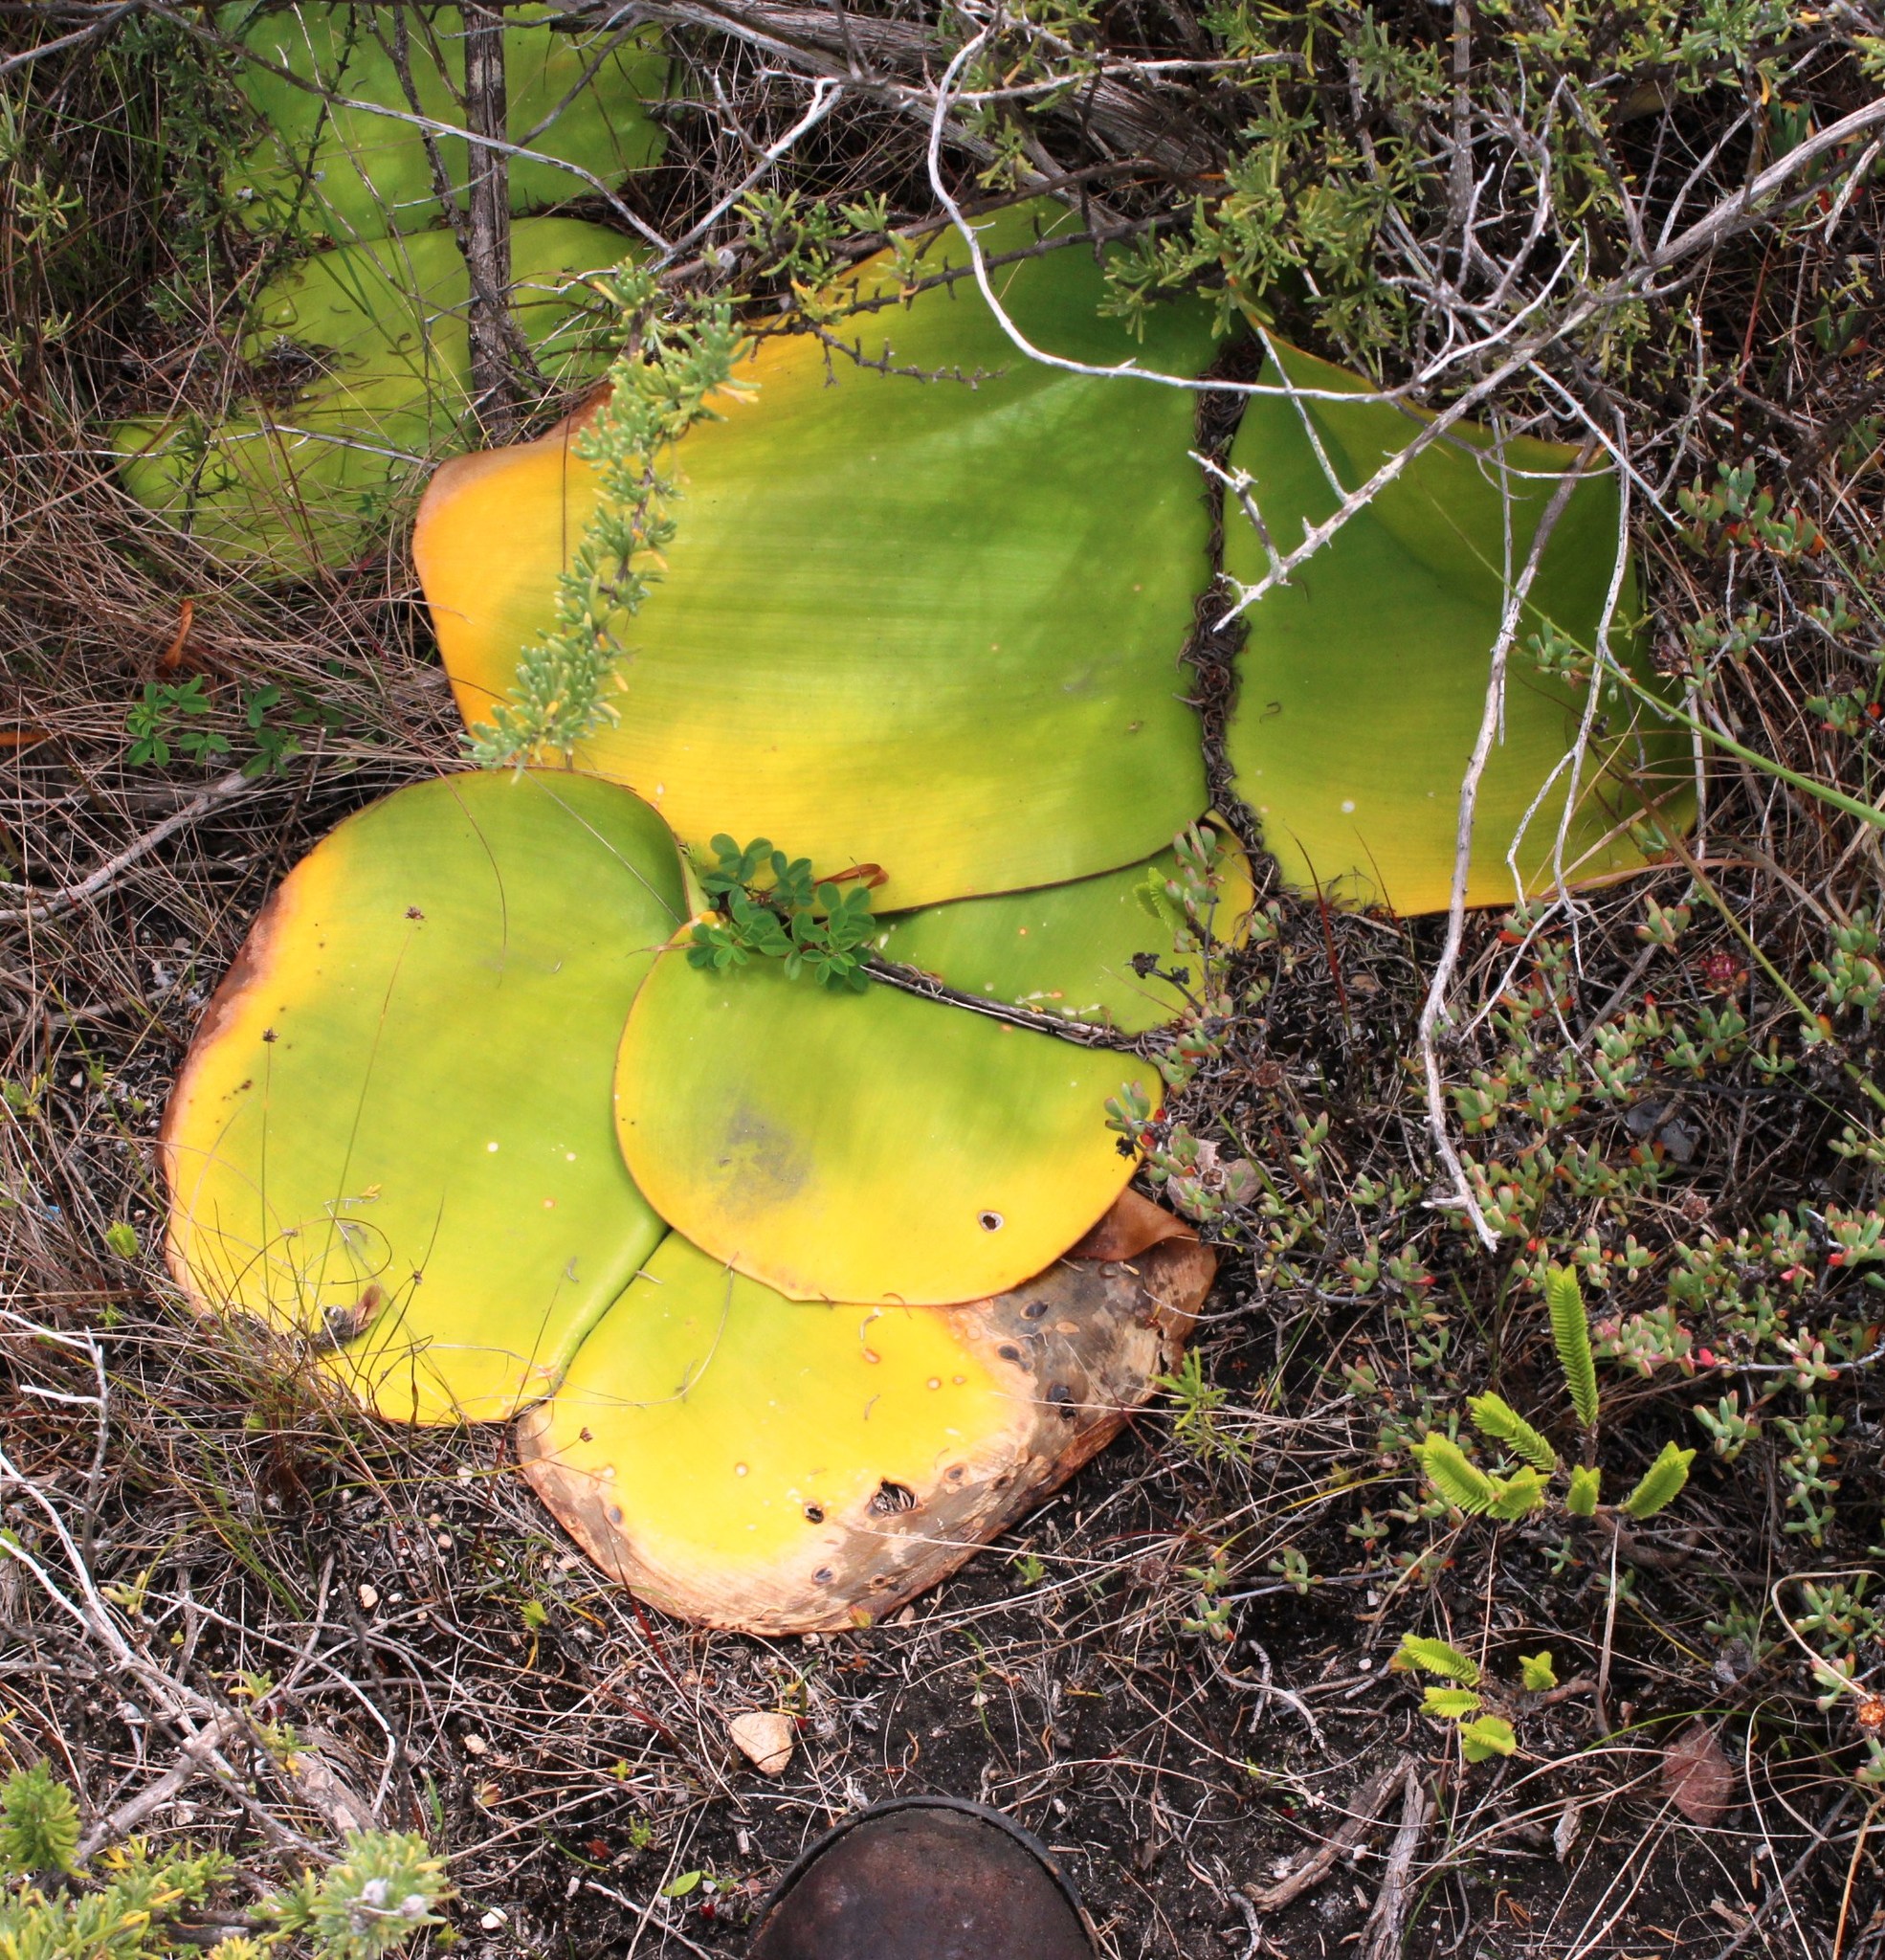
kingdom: Plantae
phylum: Tracheophyta
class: Liliopsida
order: Asparagales
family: Amaryllidaceae
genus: Haemanthus
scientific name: Haemanthus sanguineus
